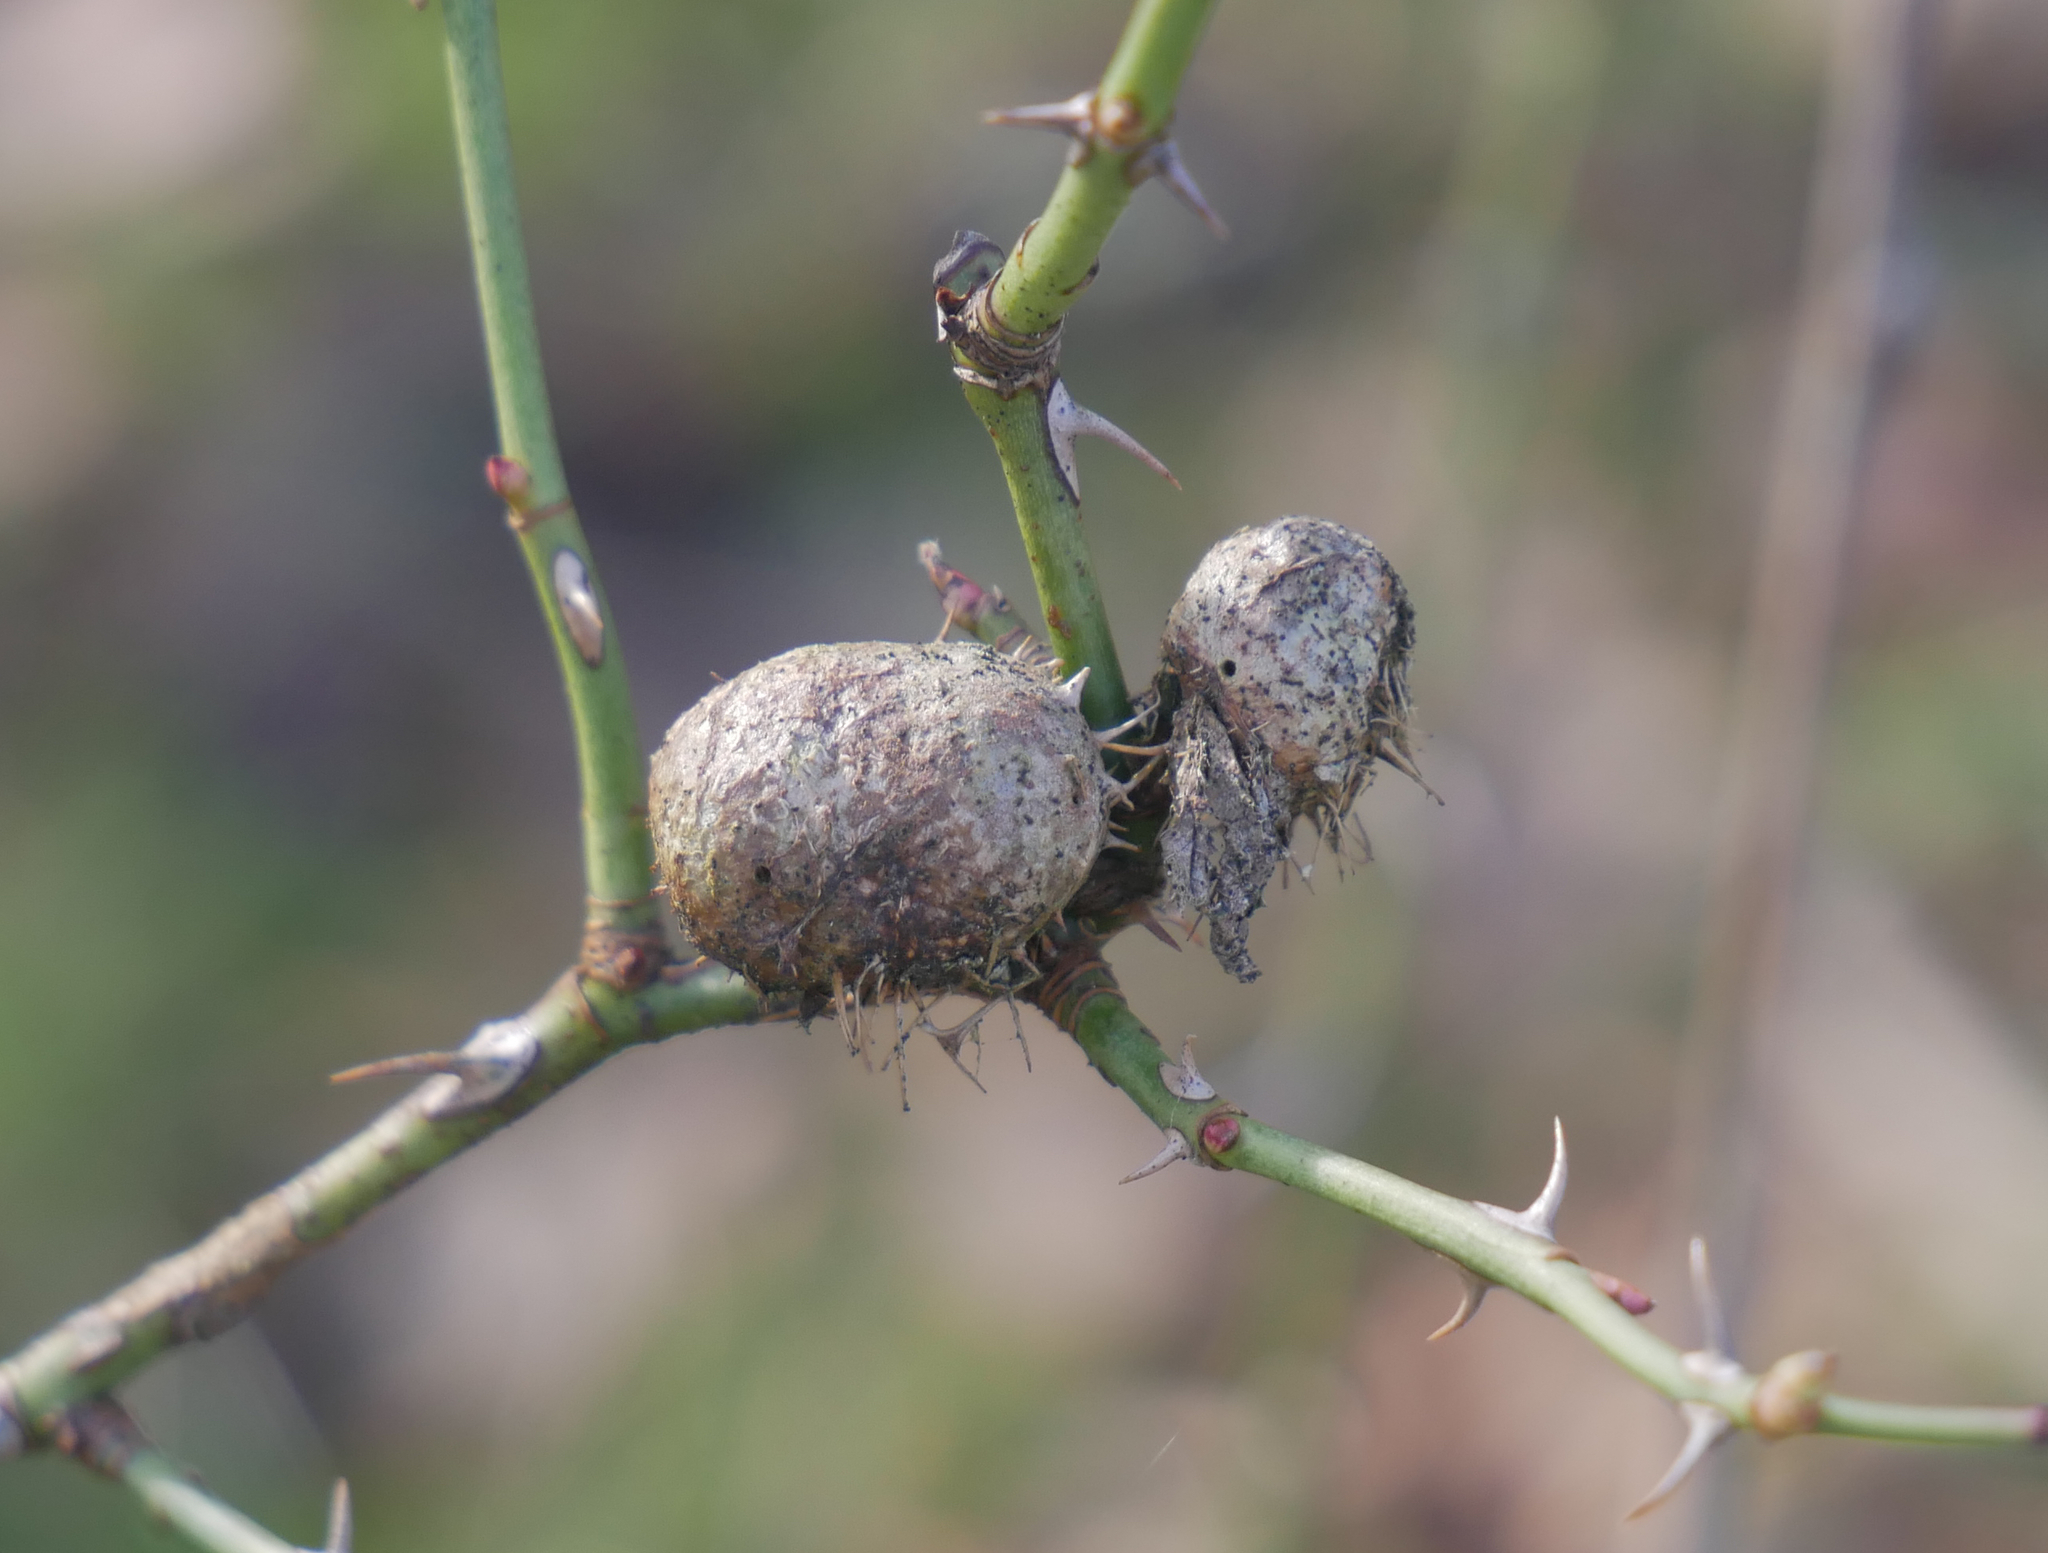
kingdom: Animalia
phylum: Arthropoda
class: Insecta
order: Hymenoptera
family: Cynipidae
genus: Diplolepis
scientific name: Diplolepis mayri
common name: Gall wasp
